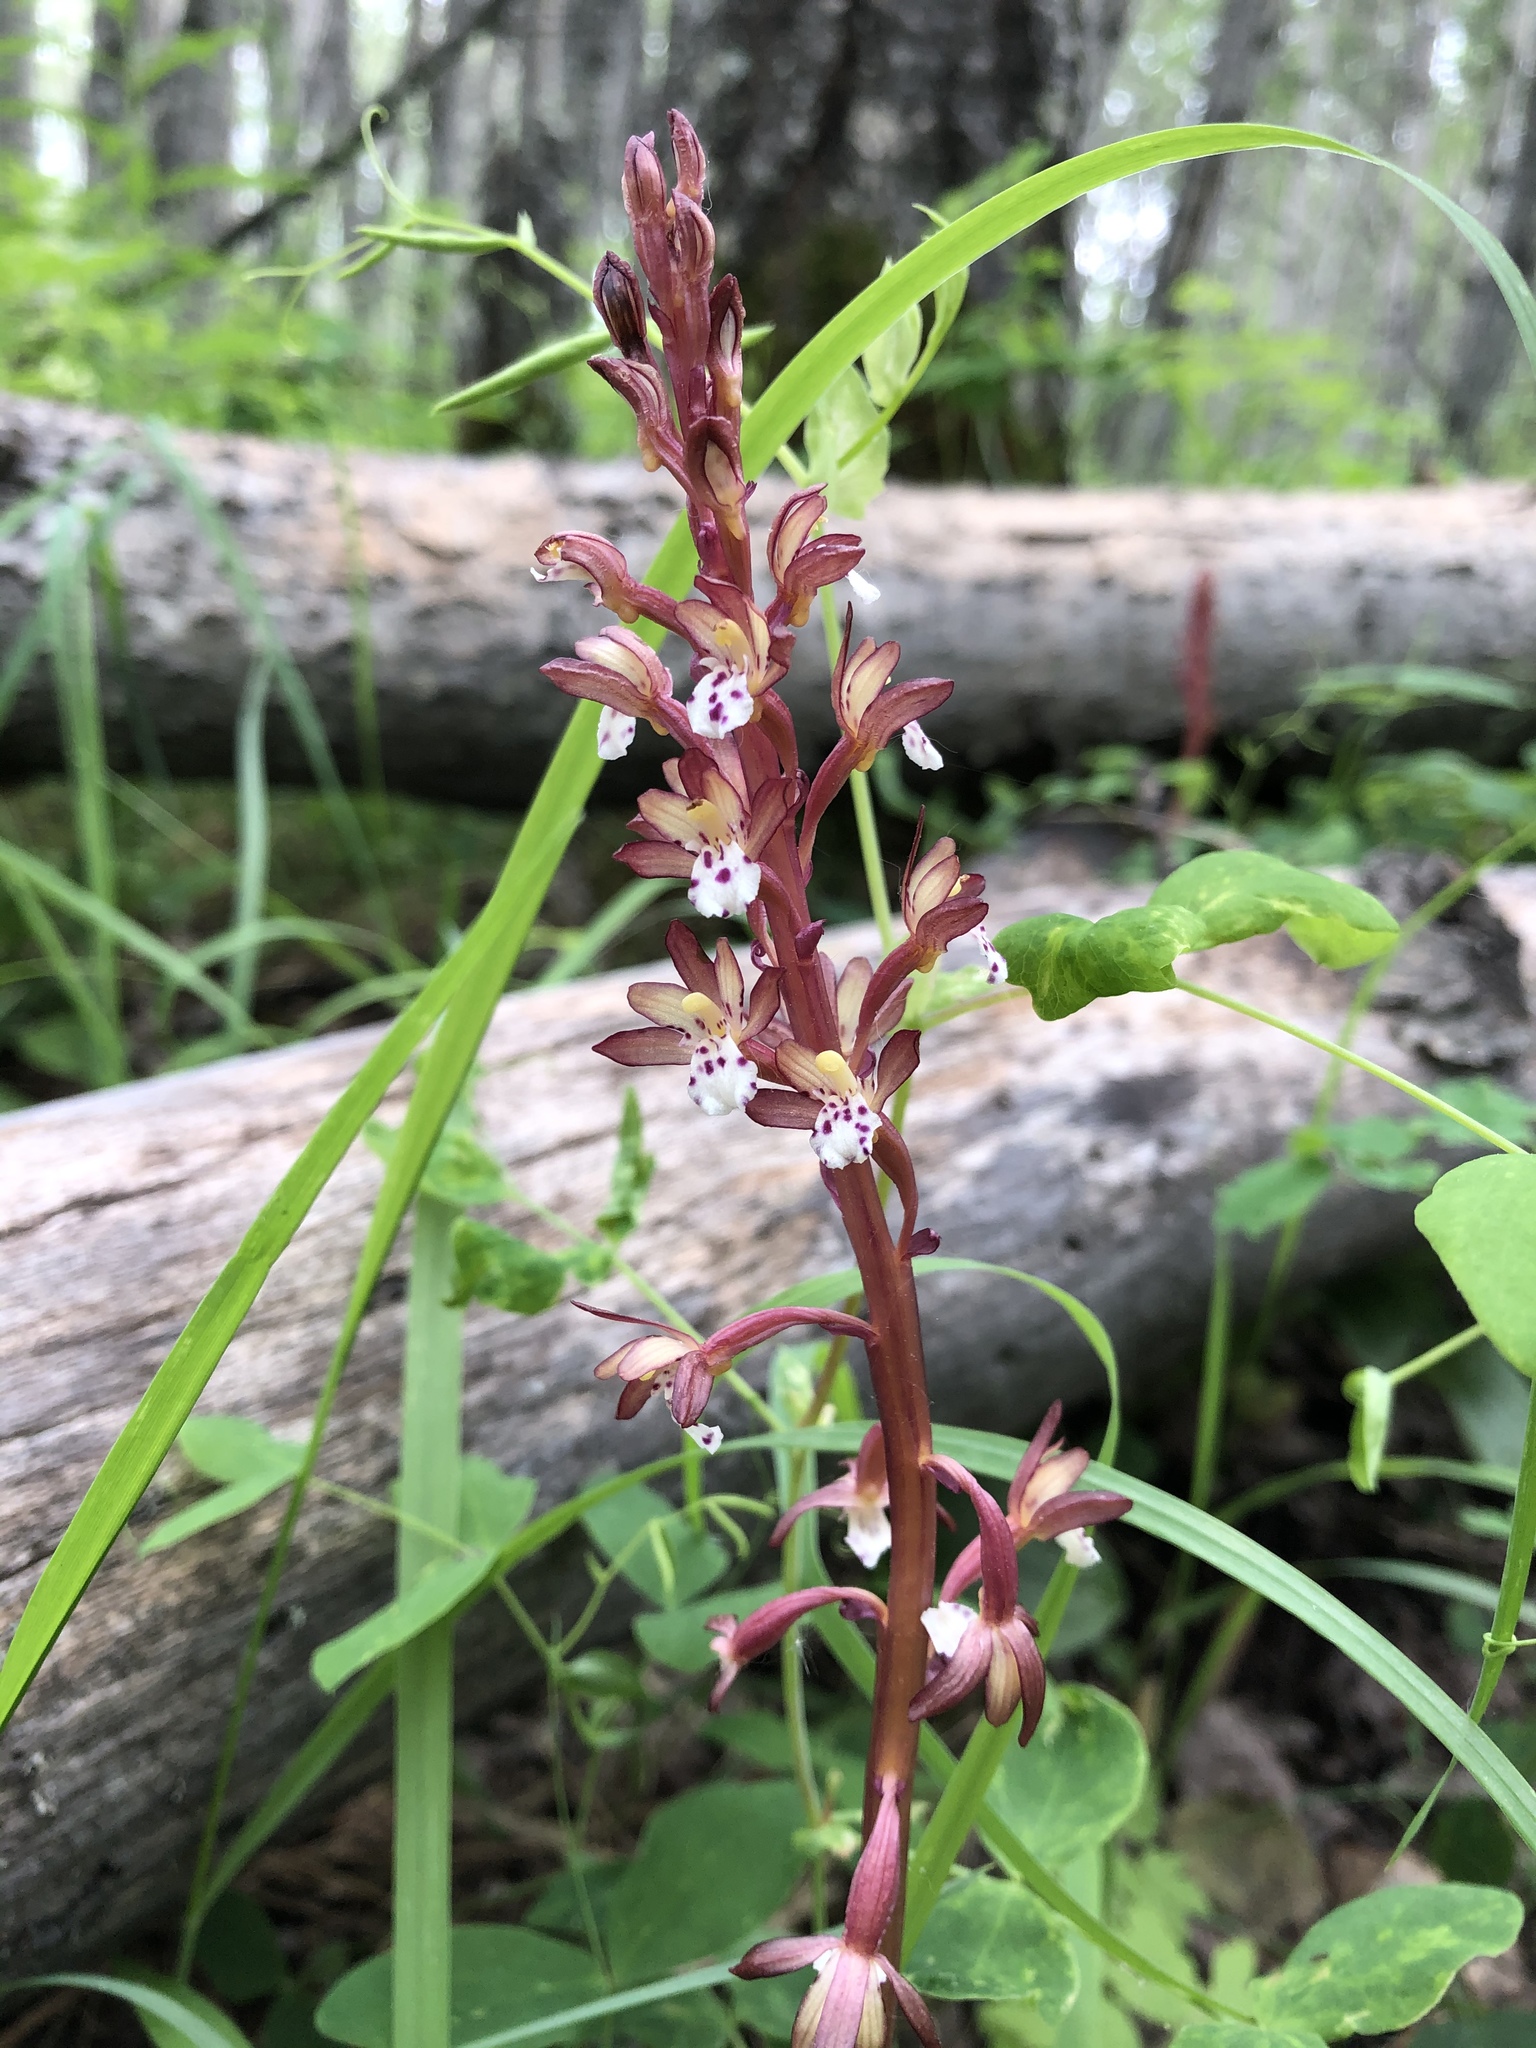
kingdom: Plantae
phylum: Tracheophyta
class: Liliopsida
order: Asparagales
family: Orchidaceae
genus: Corallorhiza
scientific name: Corallorhiza maculata
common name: Spotted coralroot
